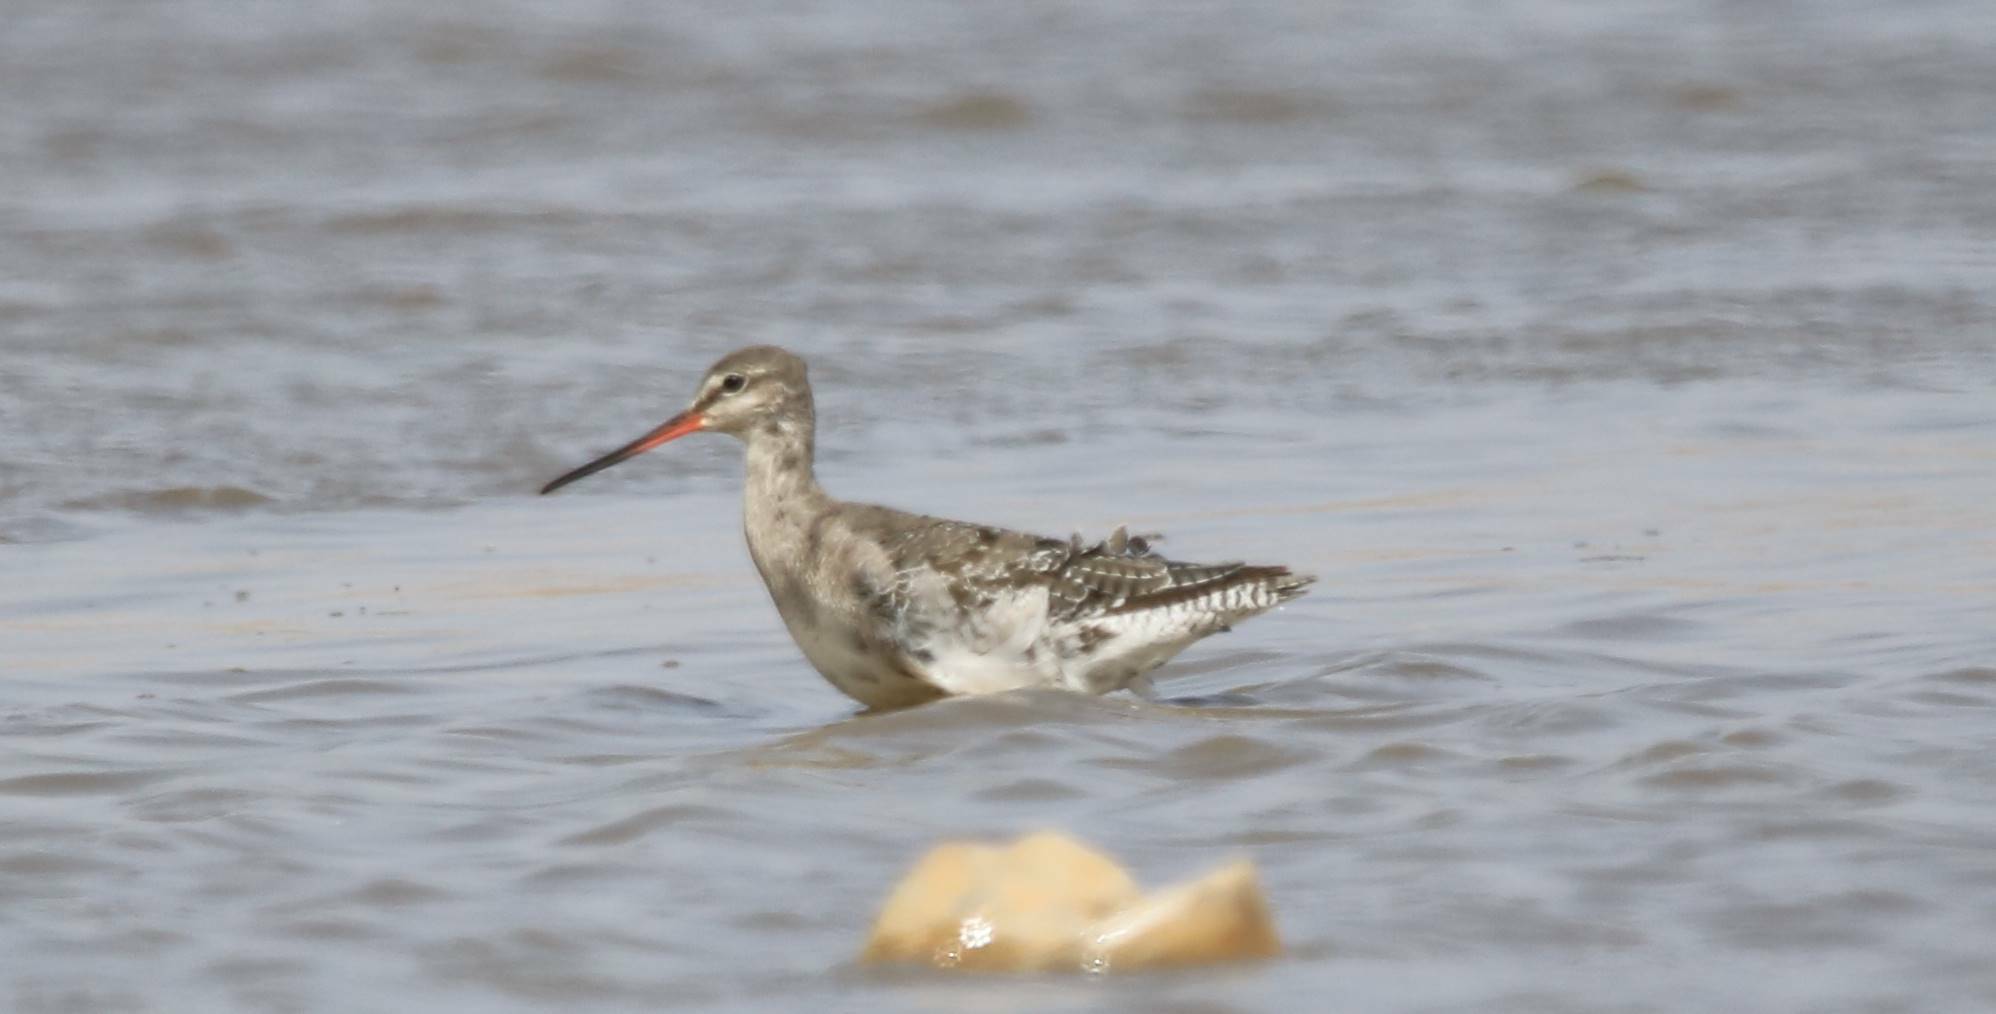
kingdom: Animalia
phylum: Chordata
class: Aves
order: Charadriiformes
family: Scolopacidae
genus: Tringa
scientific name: Tringa erythropus
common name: Spotted redshank
